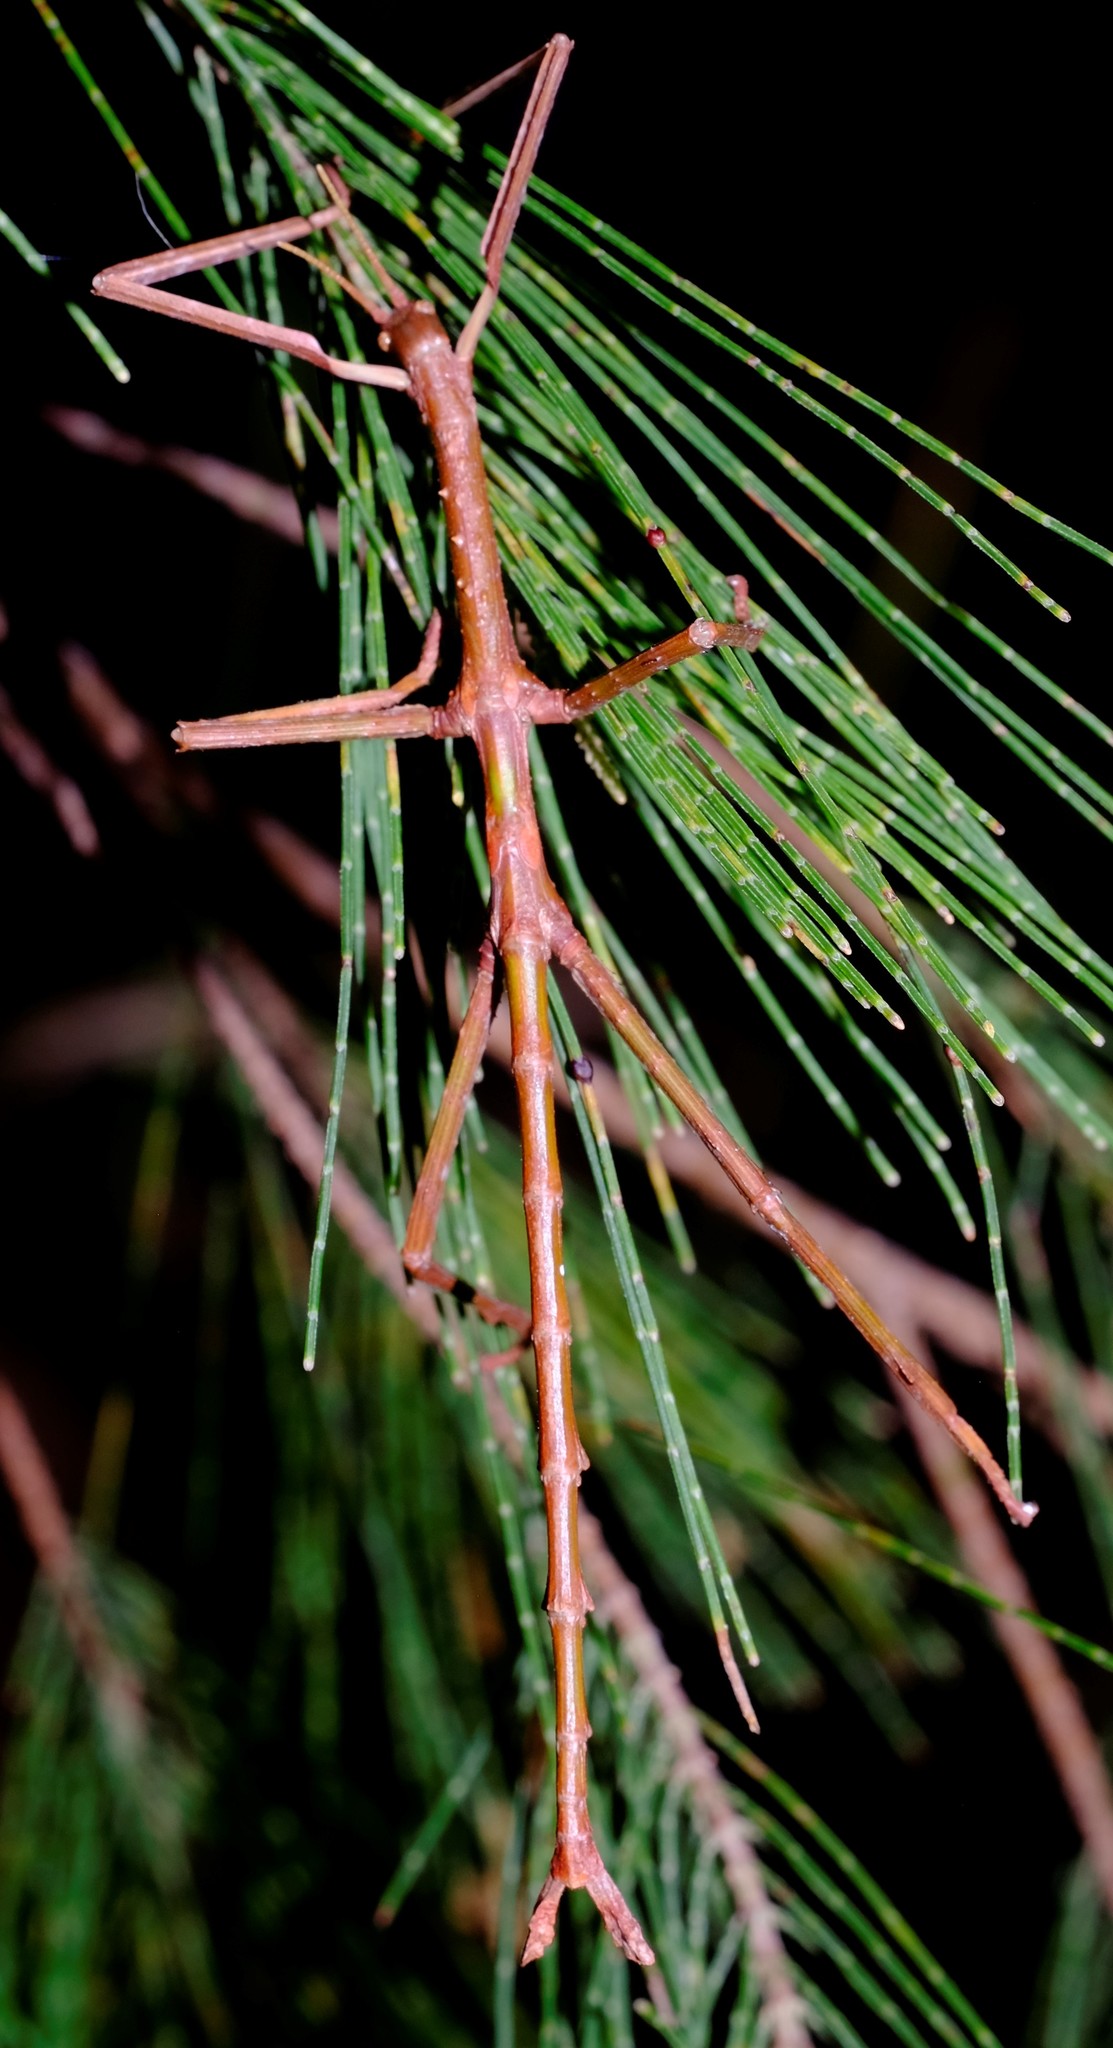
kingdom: Animalia
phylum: Arthropoda
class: Insecta
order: Phasmida
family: Phasmatidae
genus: Acrophylla
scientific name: Acrophylla titan
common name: Titan stick insect
